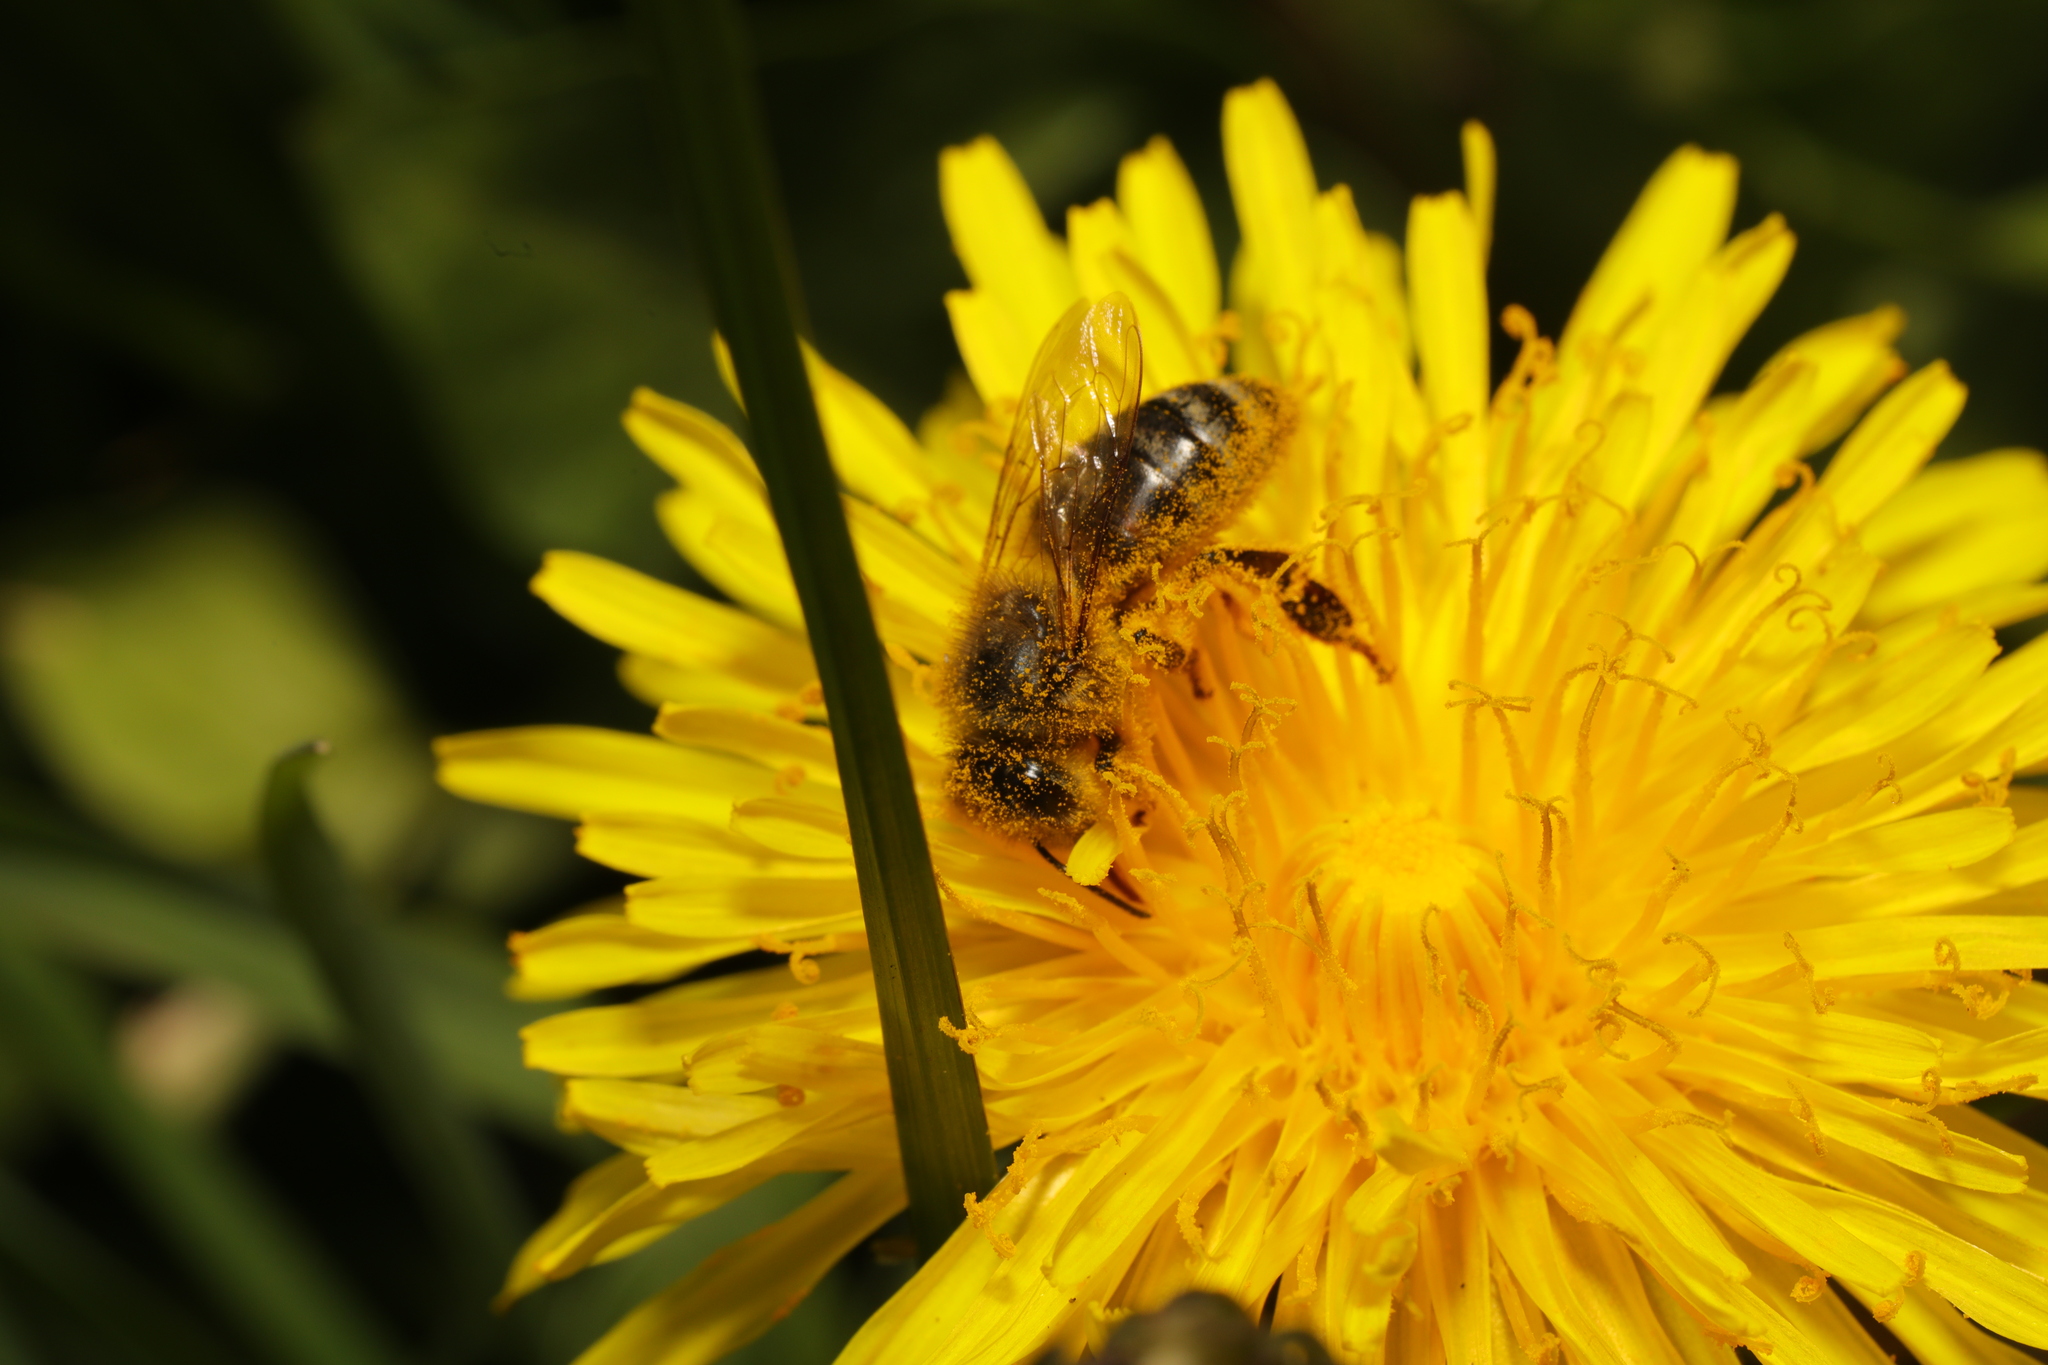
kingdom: Animalia
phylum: Arthropoda
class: Insecta
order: Hymenoptera
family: Apidae
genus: Apis
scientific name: Apis mellifera
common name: Honey bee
